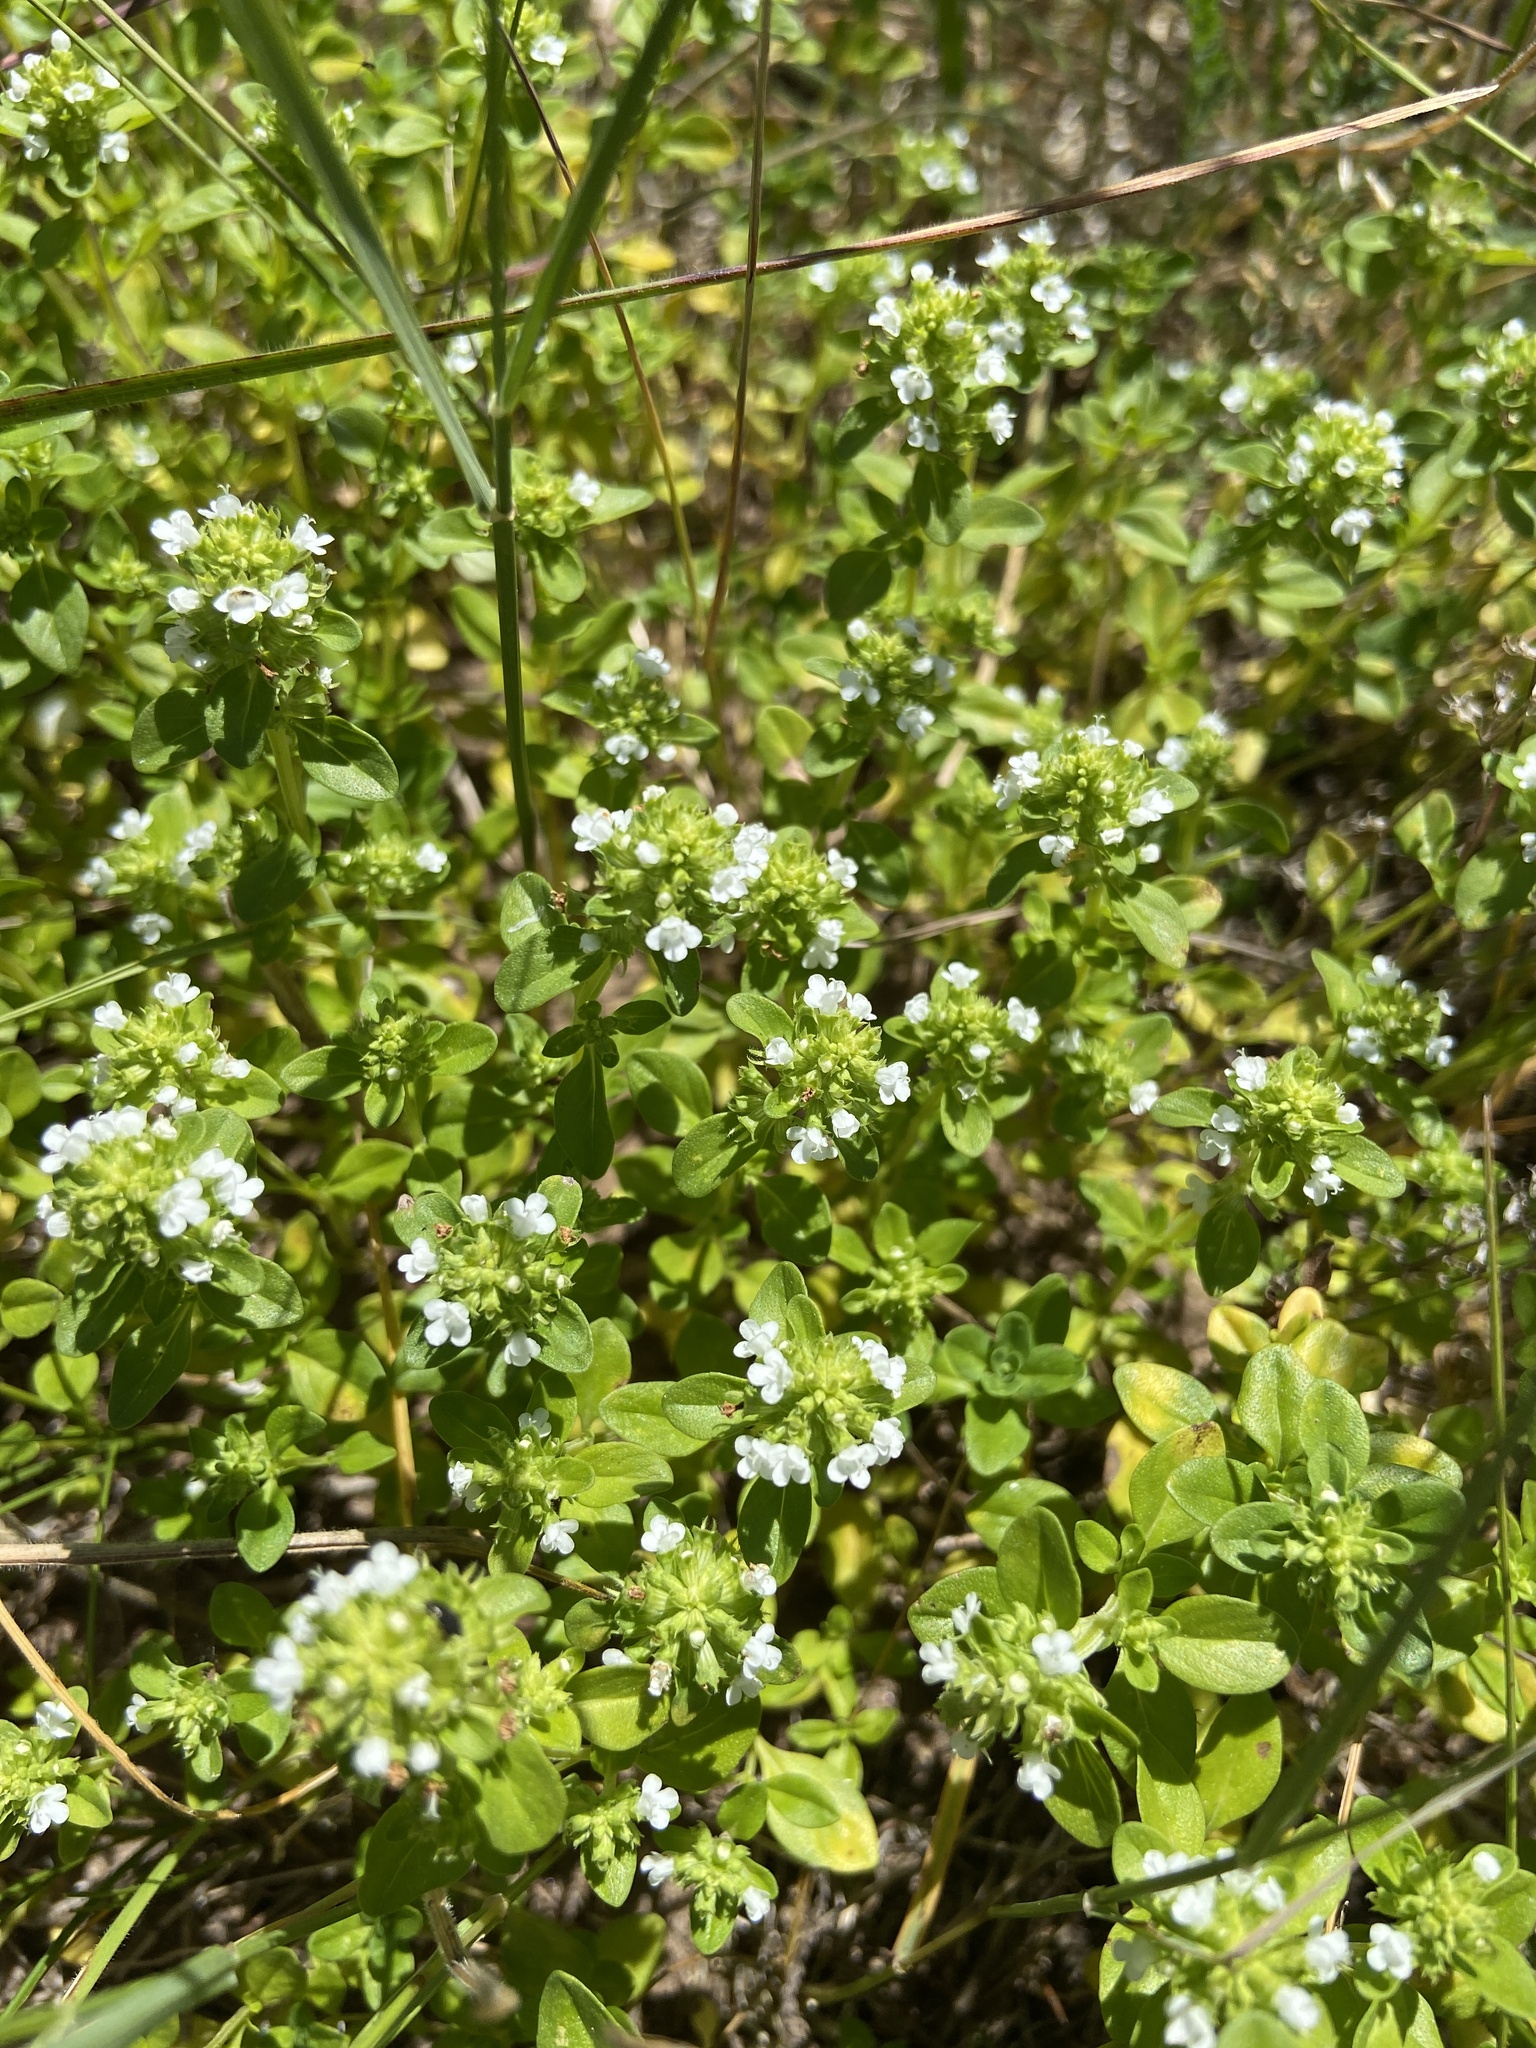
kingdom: Plantae
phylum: Tracheophyta
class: Magnoliopsida
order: Lamiales
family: Lamiaceae
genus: Thymus
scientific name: Thymus pulegioides
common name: Large thyme
